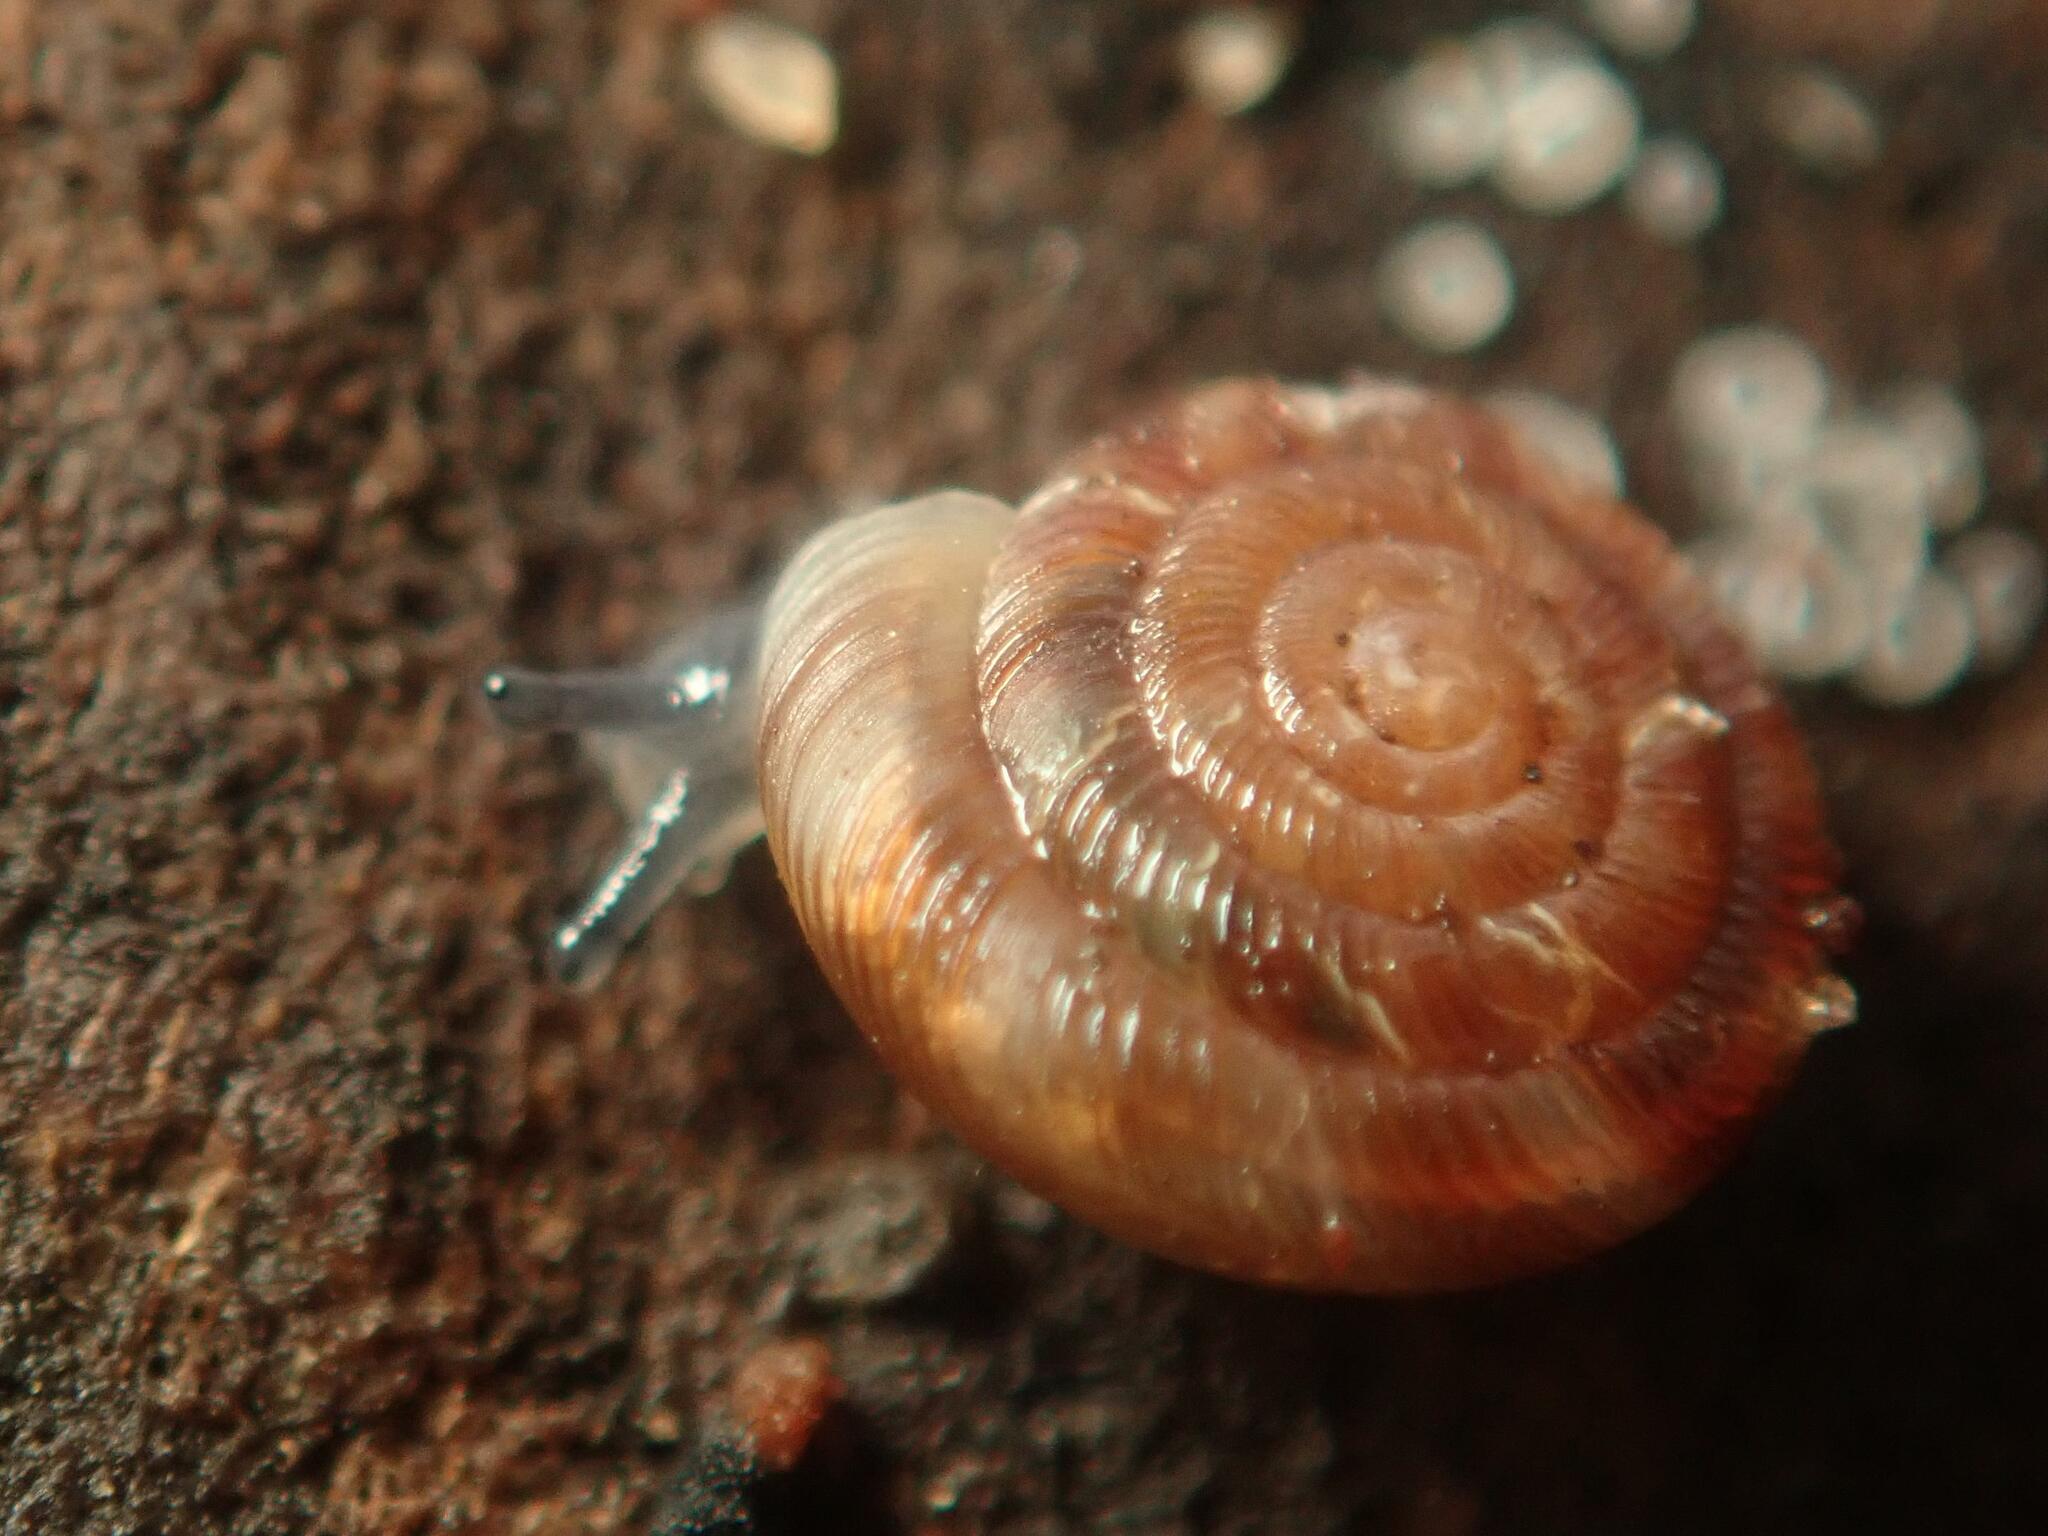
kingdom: Animalia
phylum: Mollusca
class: Gastropoda
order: Stylommatophora
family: Discidae
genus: Discus
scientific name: Discus rotundatus
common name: Rounded snail
